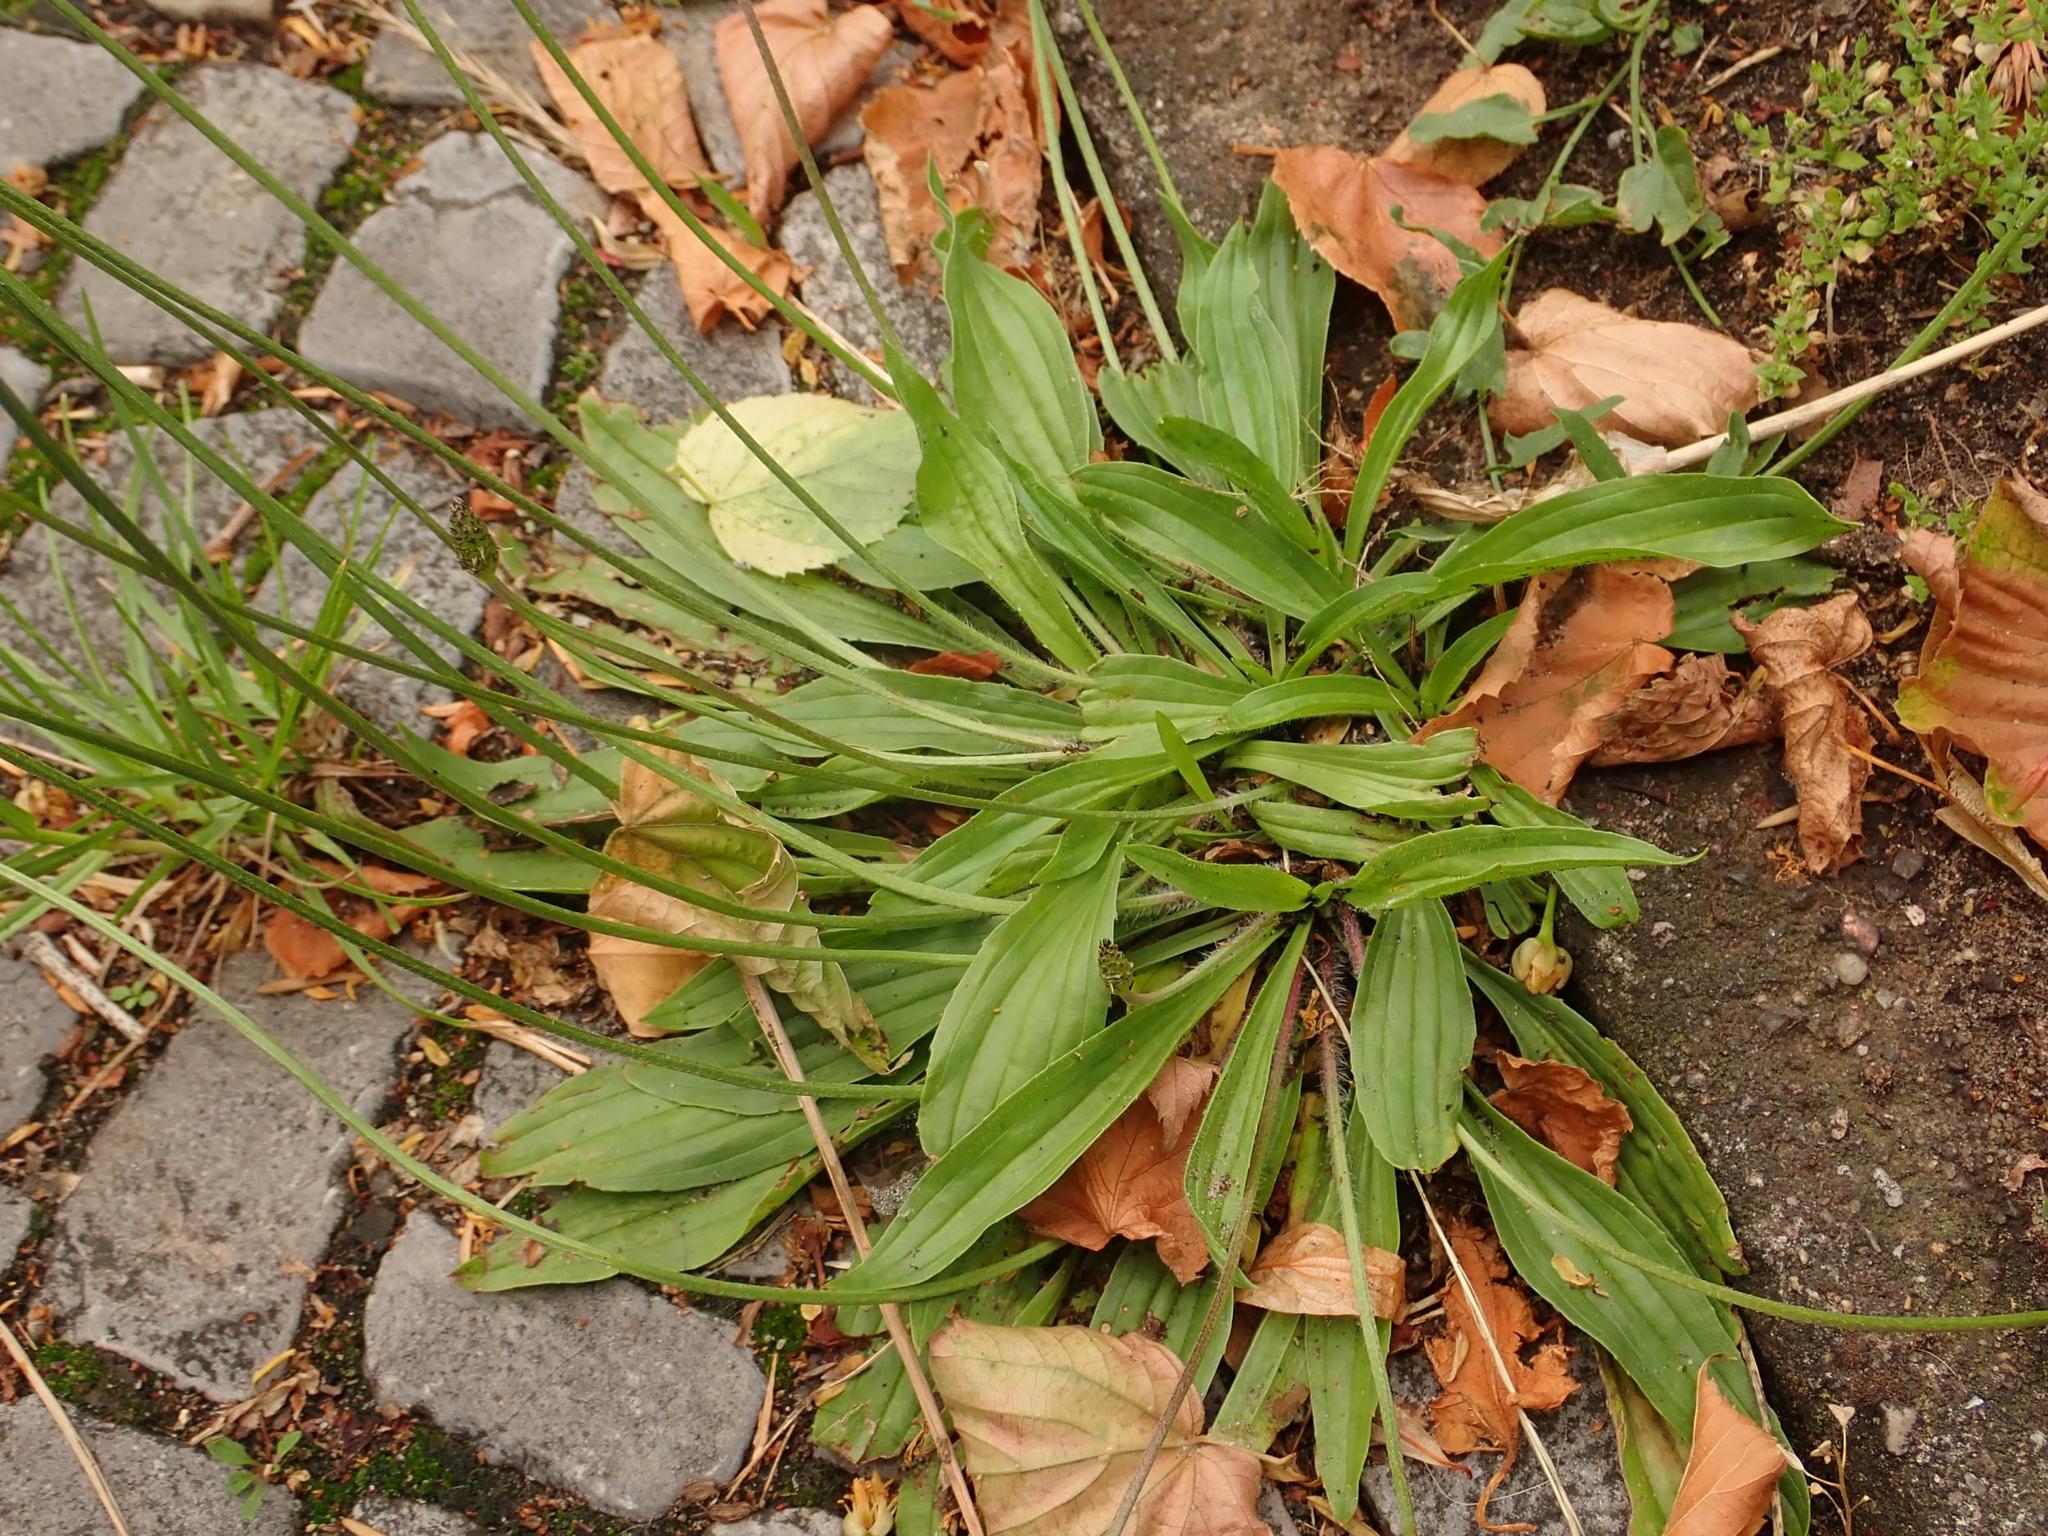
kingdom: Plantae
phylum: Tracheophyta
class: Magnoliopsida
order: Lamiales
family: Plantaginaceae
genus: Plantago
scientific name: Plantago lanceolata
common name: Ribwort plantain
